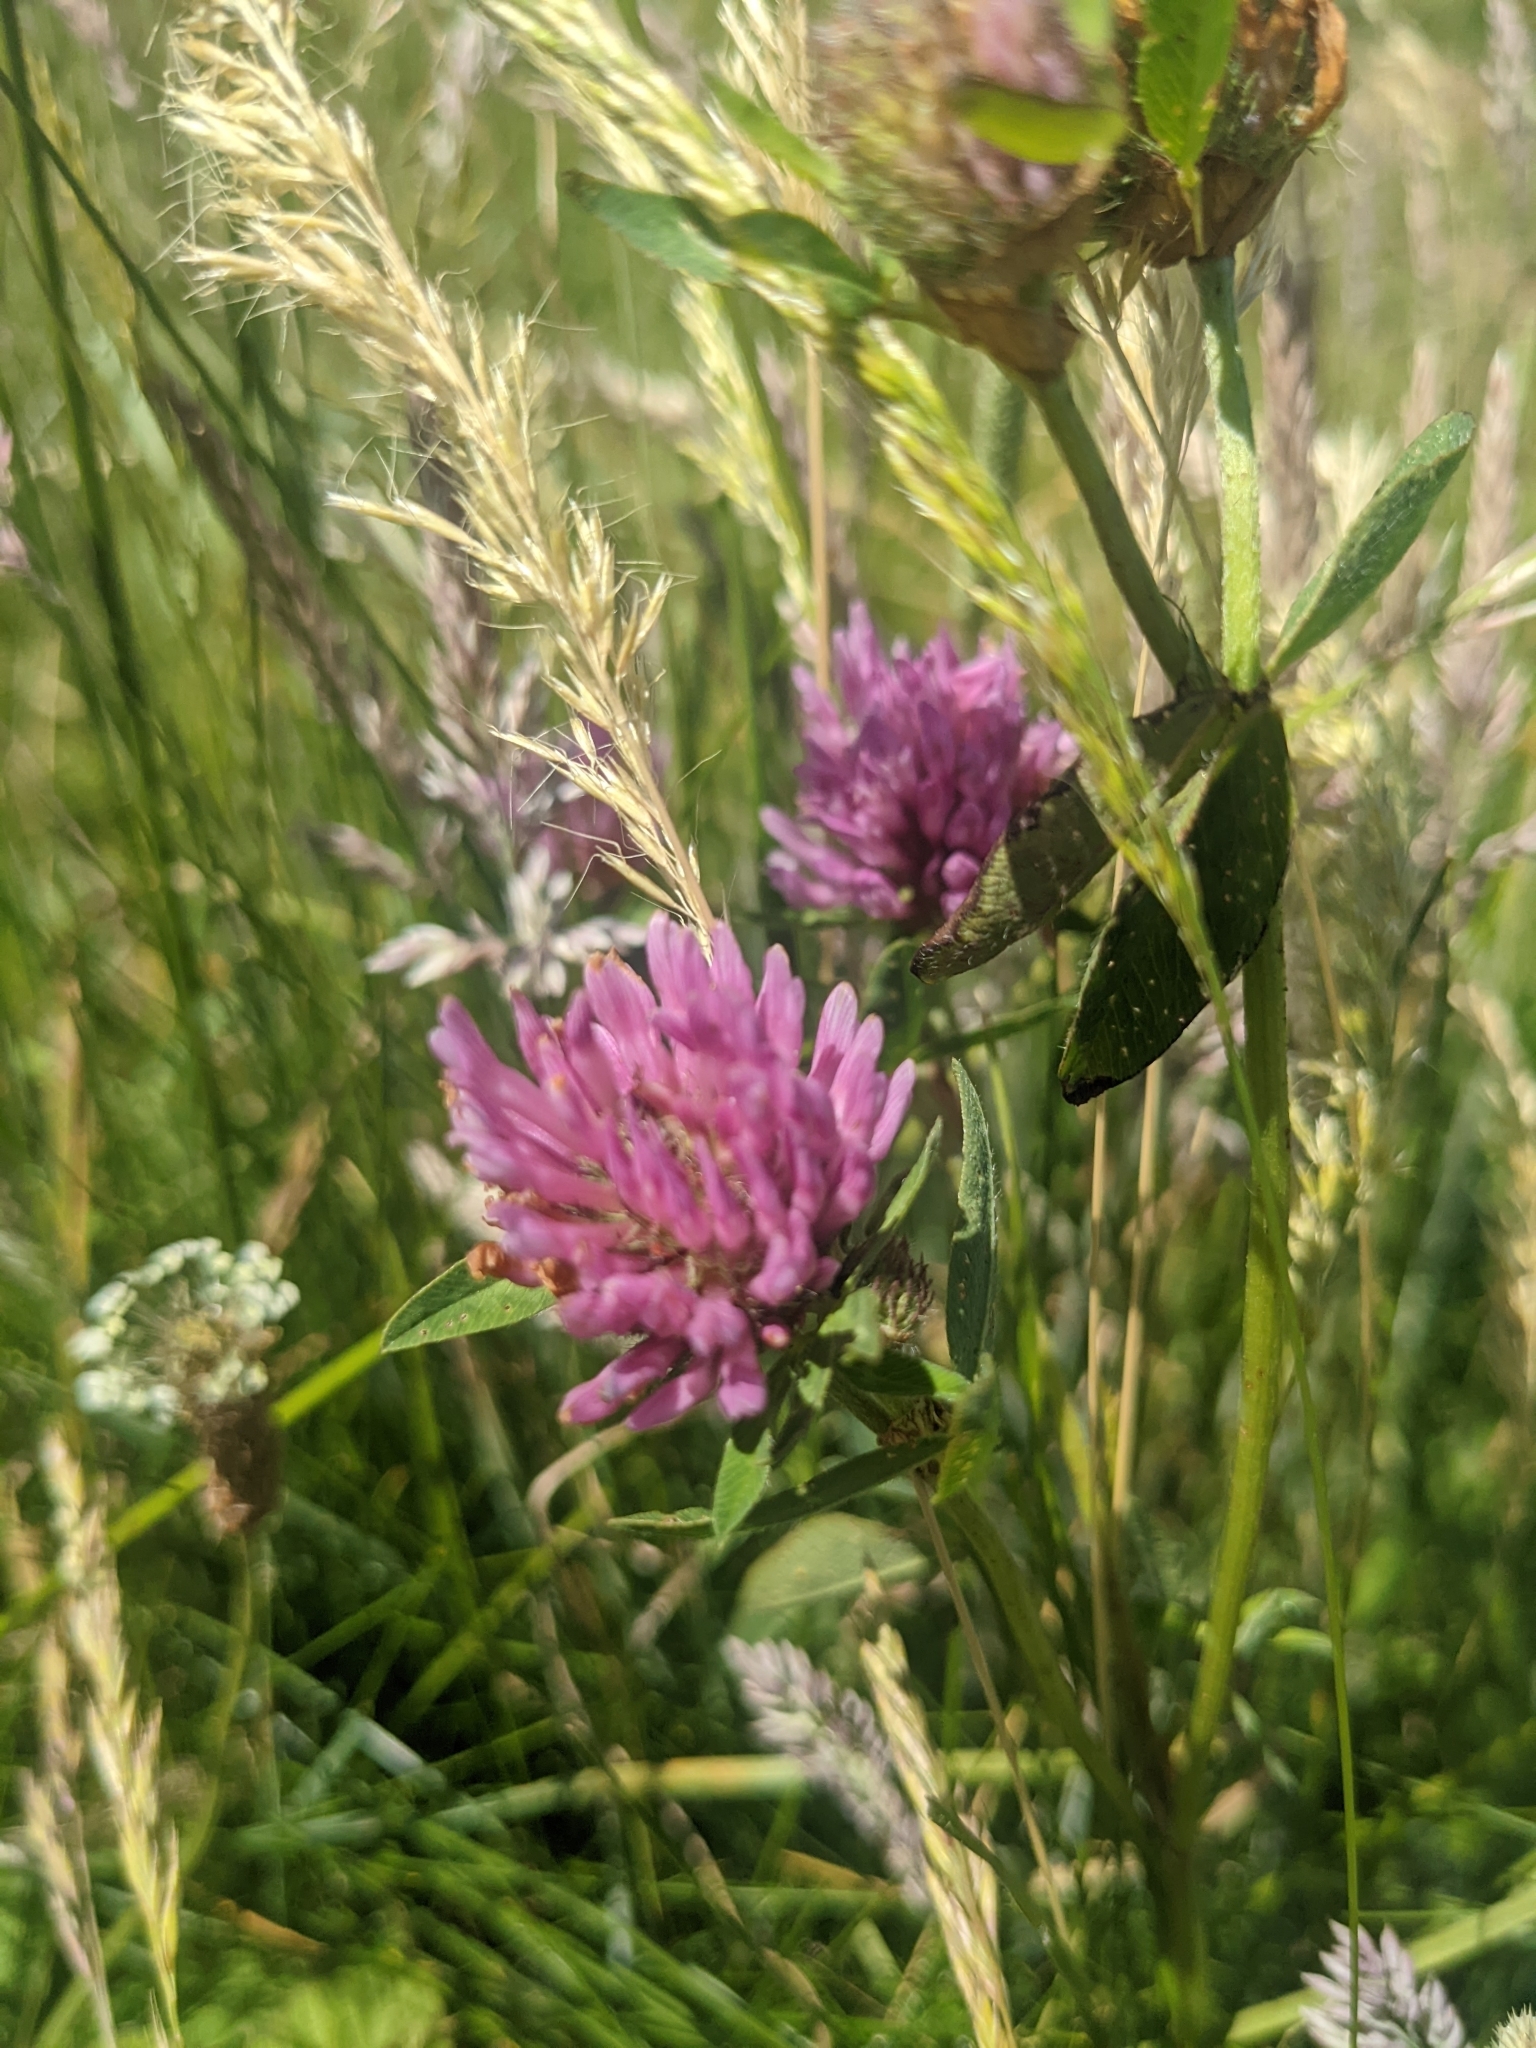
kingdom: Plantae
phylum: Tracheophyta
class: Magnoliopsida
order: Fabales
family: Fabaceae
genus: Trifolium
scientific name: Trifolium pratense
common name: Red clover
